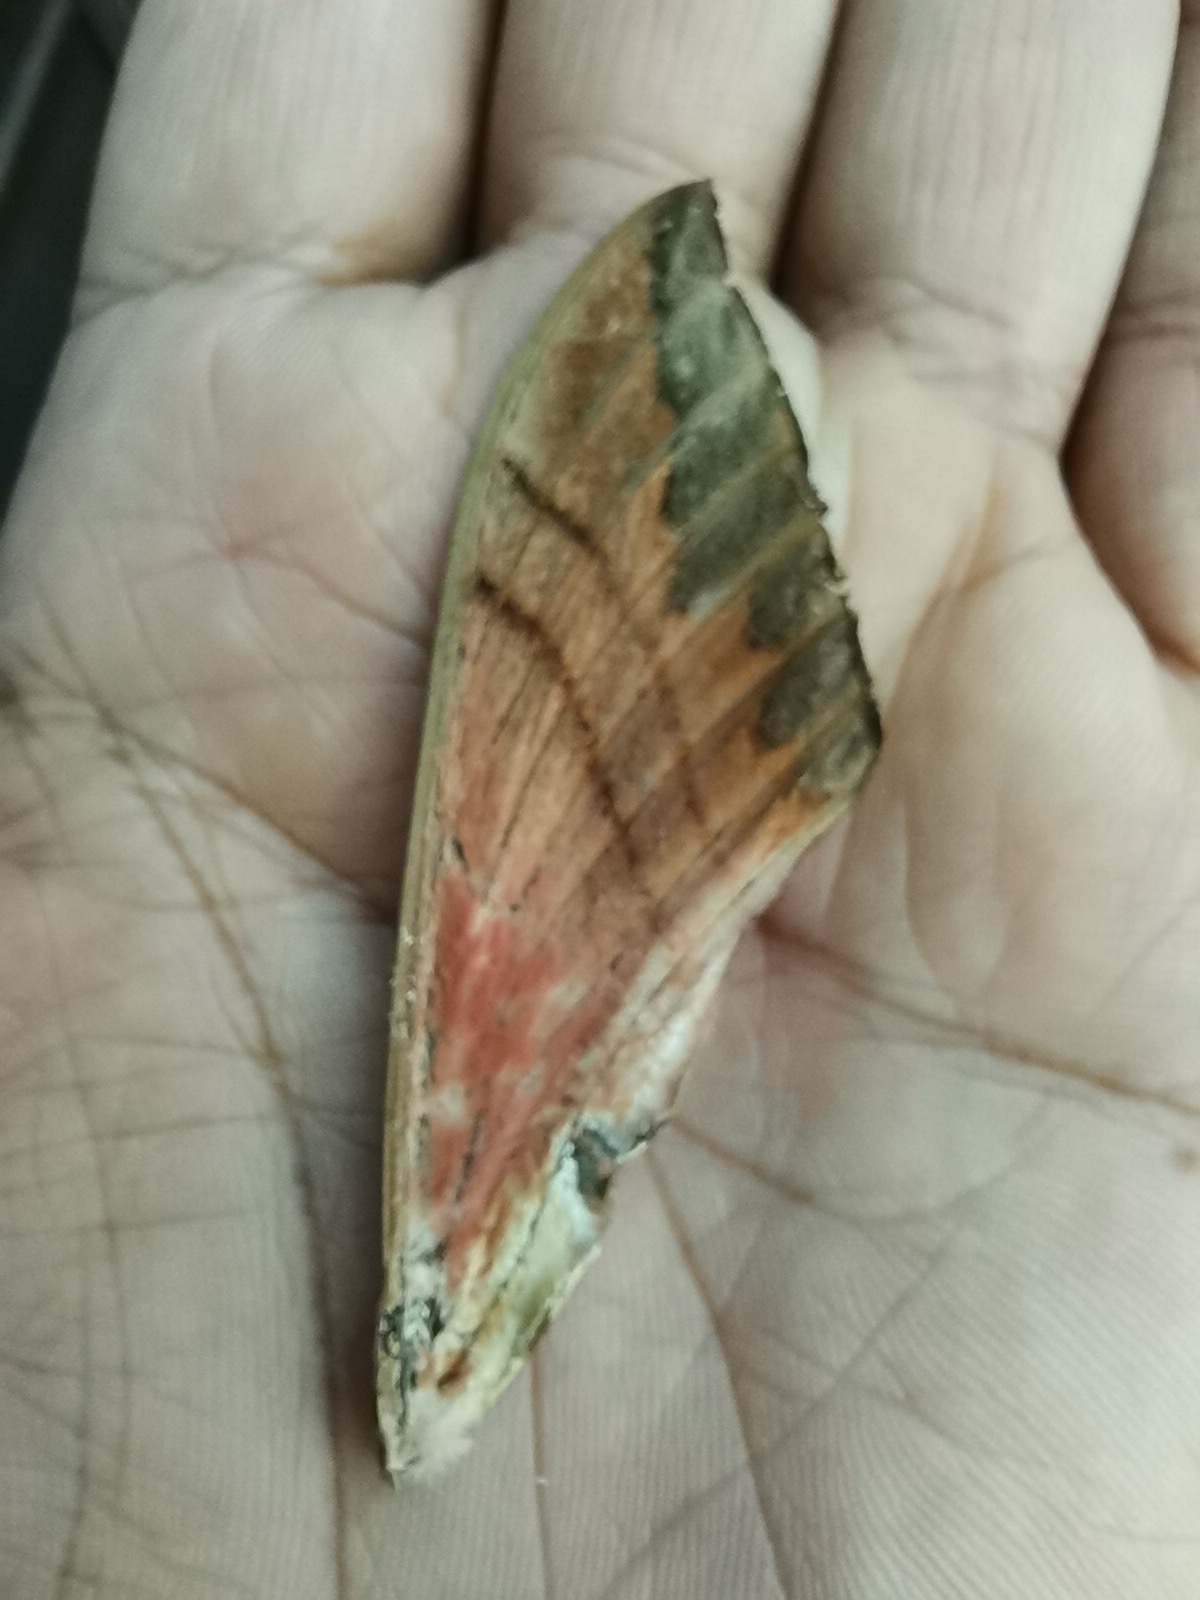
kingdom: Animalia
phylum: Arthropoda
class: Insecta
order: Lepidoptera
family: Sphingidae
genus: Eumorpha
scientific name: Eumorpha typhon
